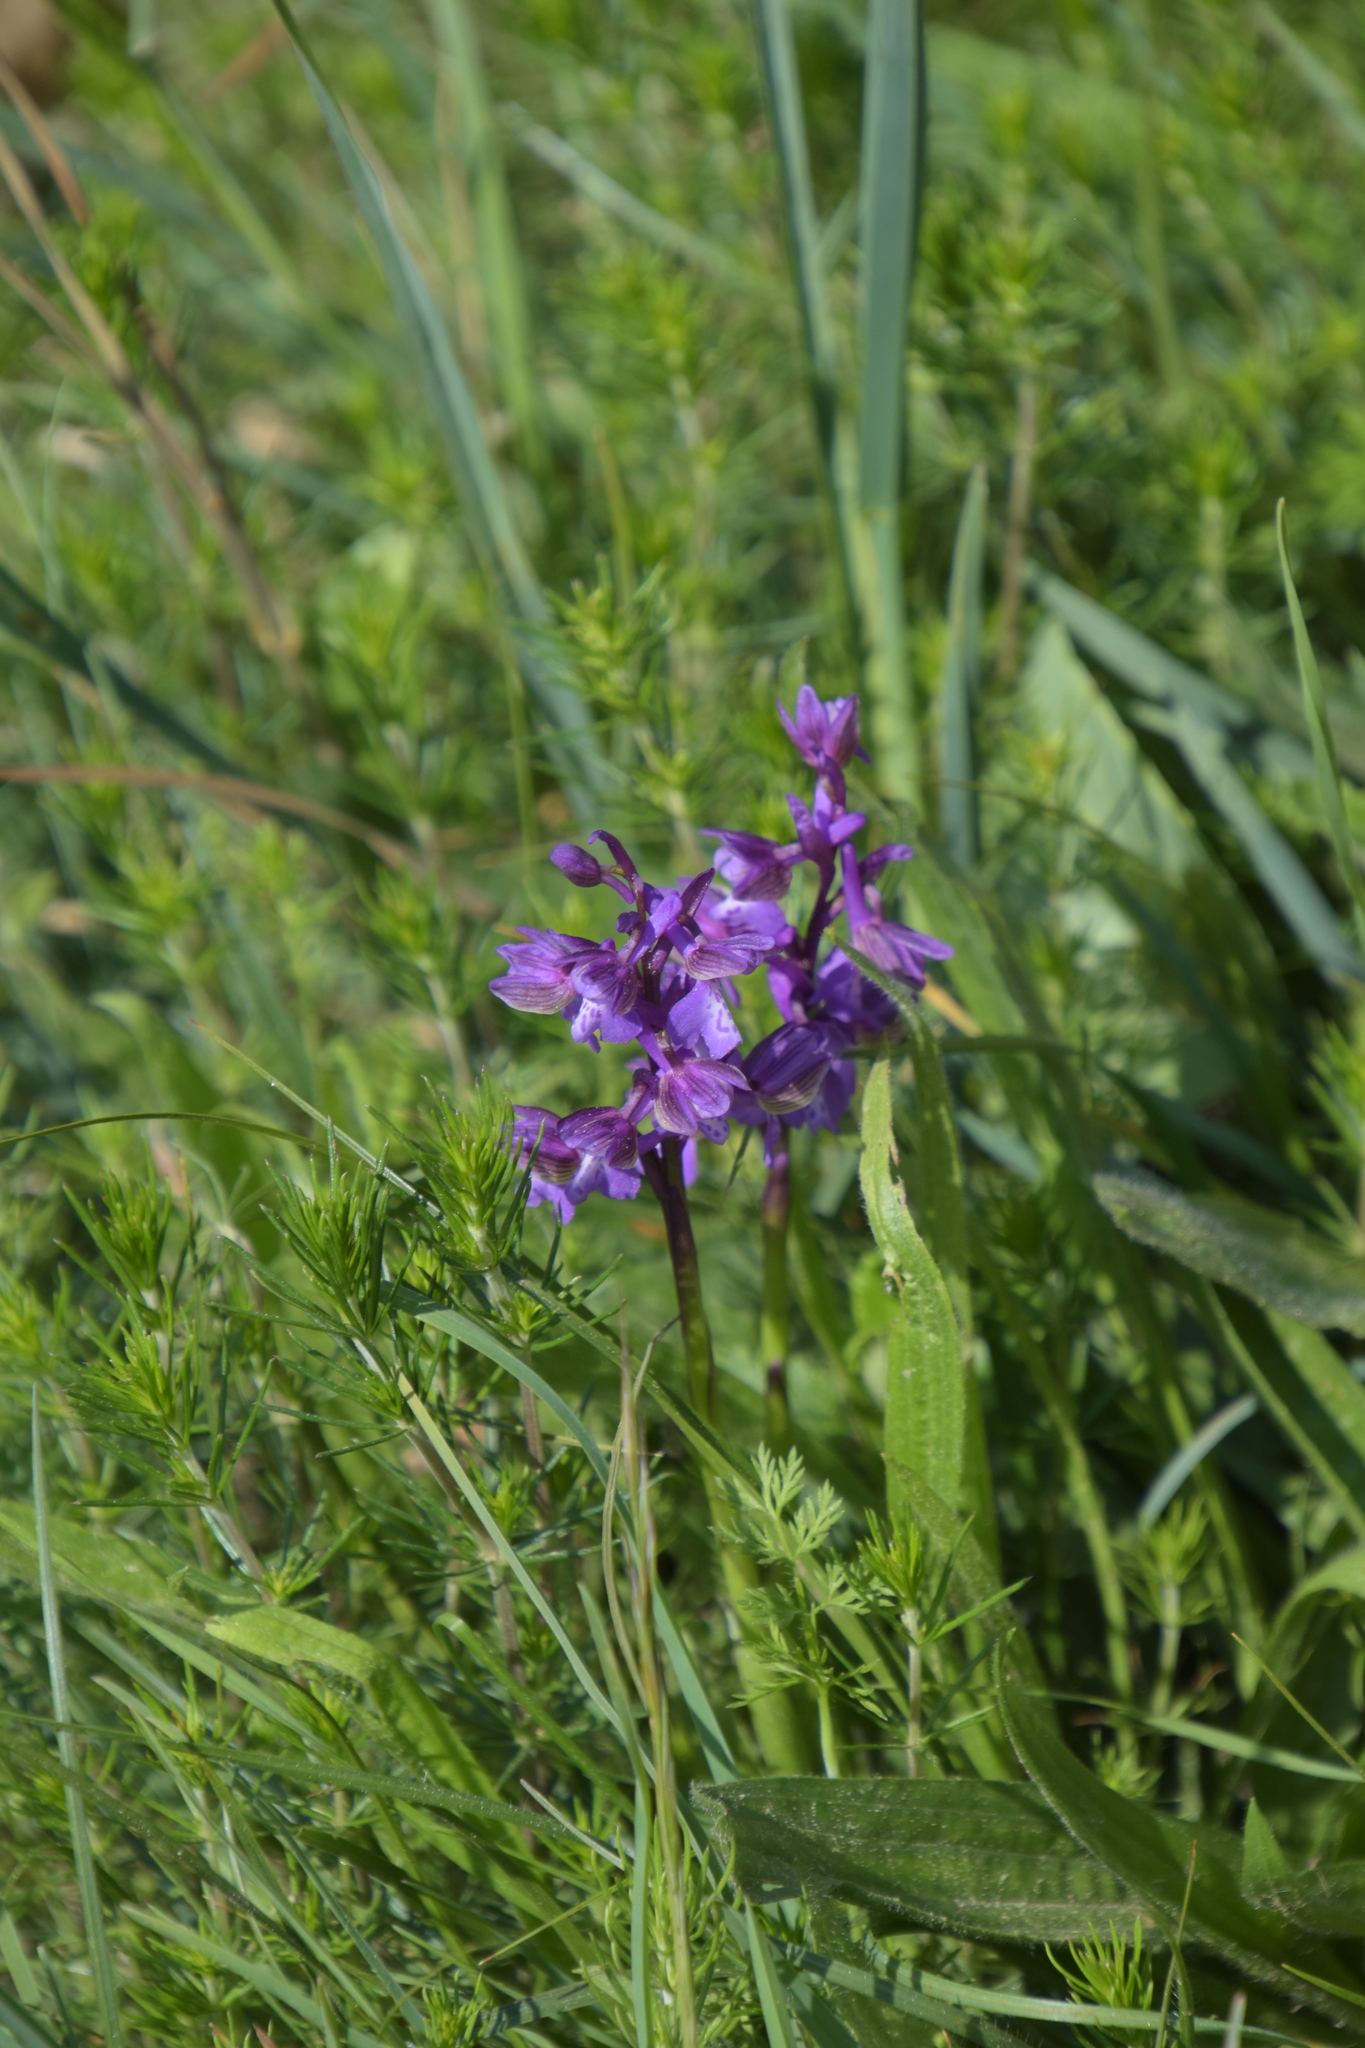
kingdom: Plantae
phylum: Tracheophyta
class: Liliopsida
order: Asparagales
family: Orchidaceae
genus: Anacamptis
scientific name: Anacamptis morio
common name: Green-winged orchid
